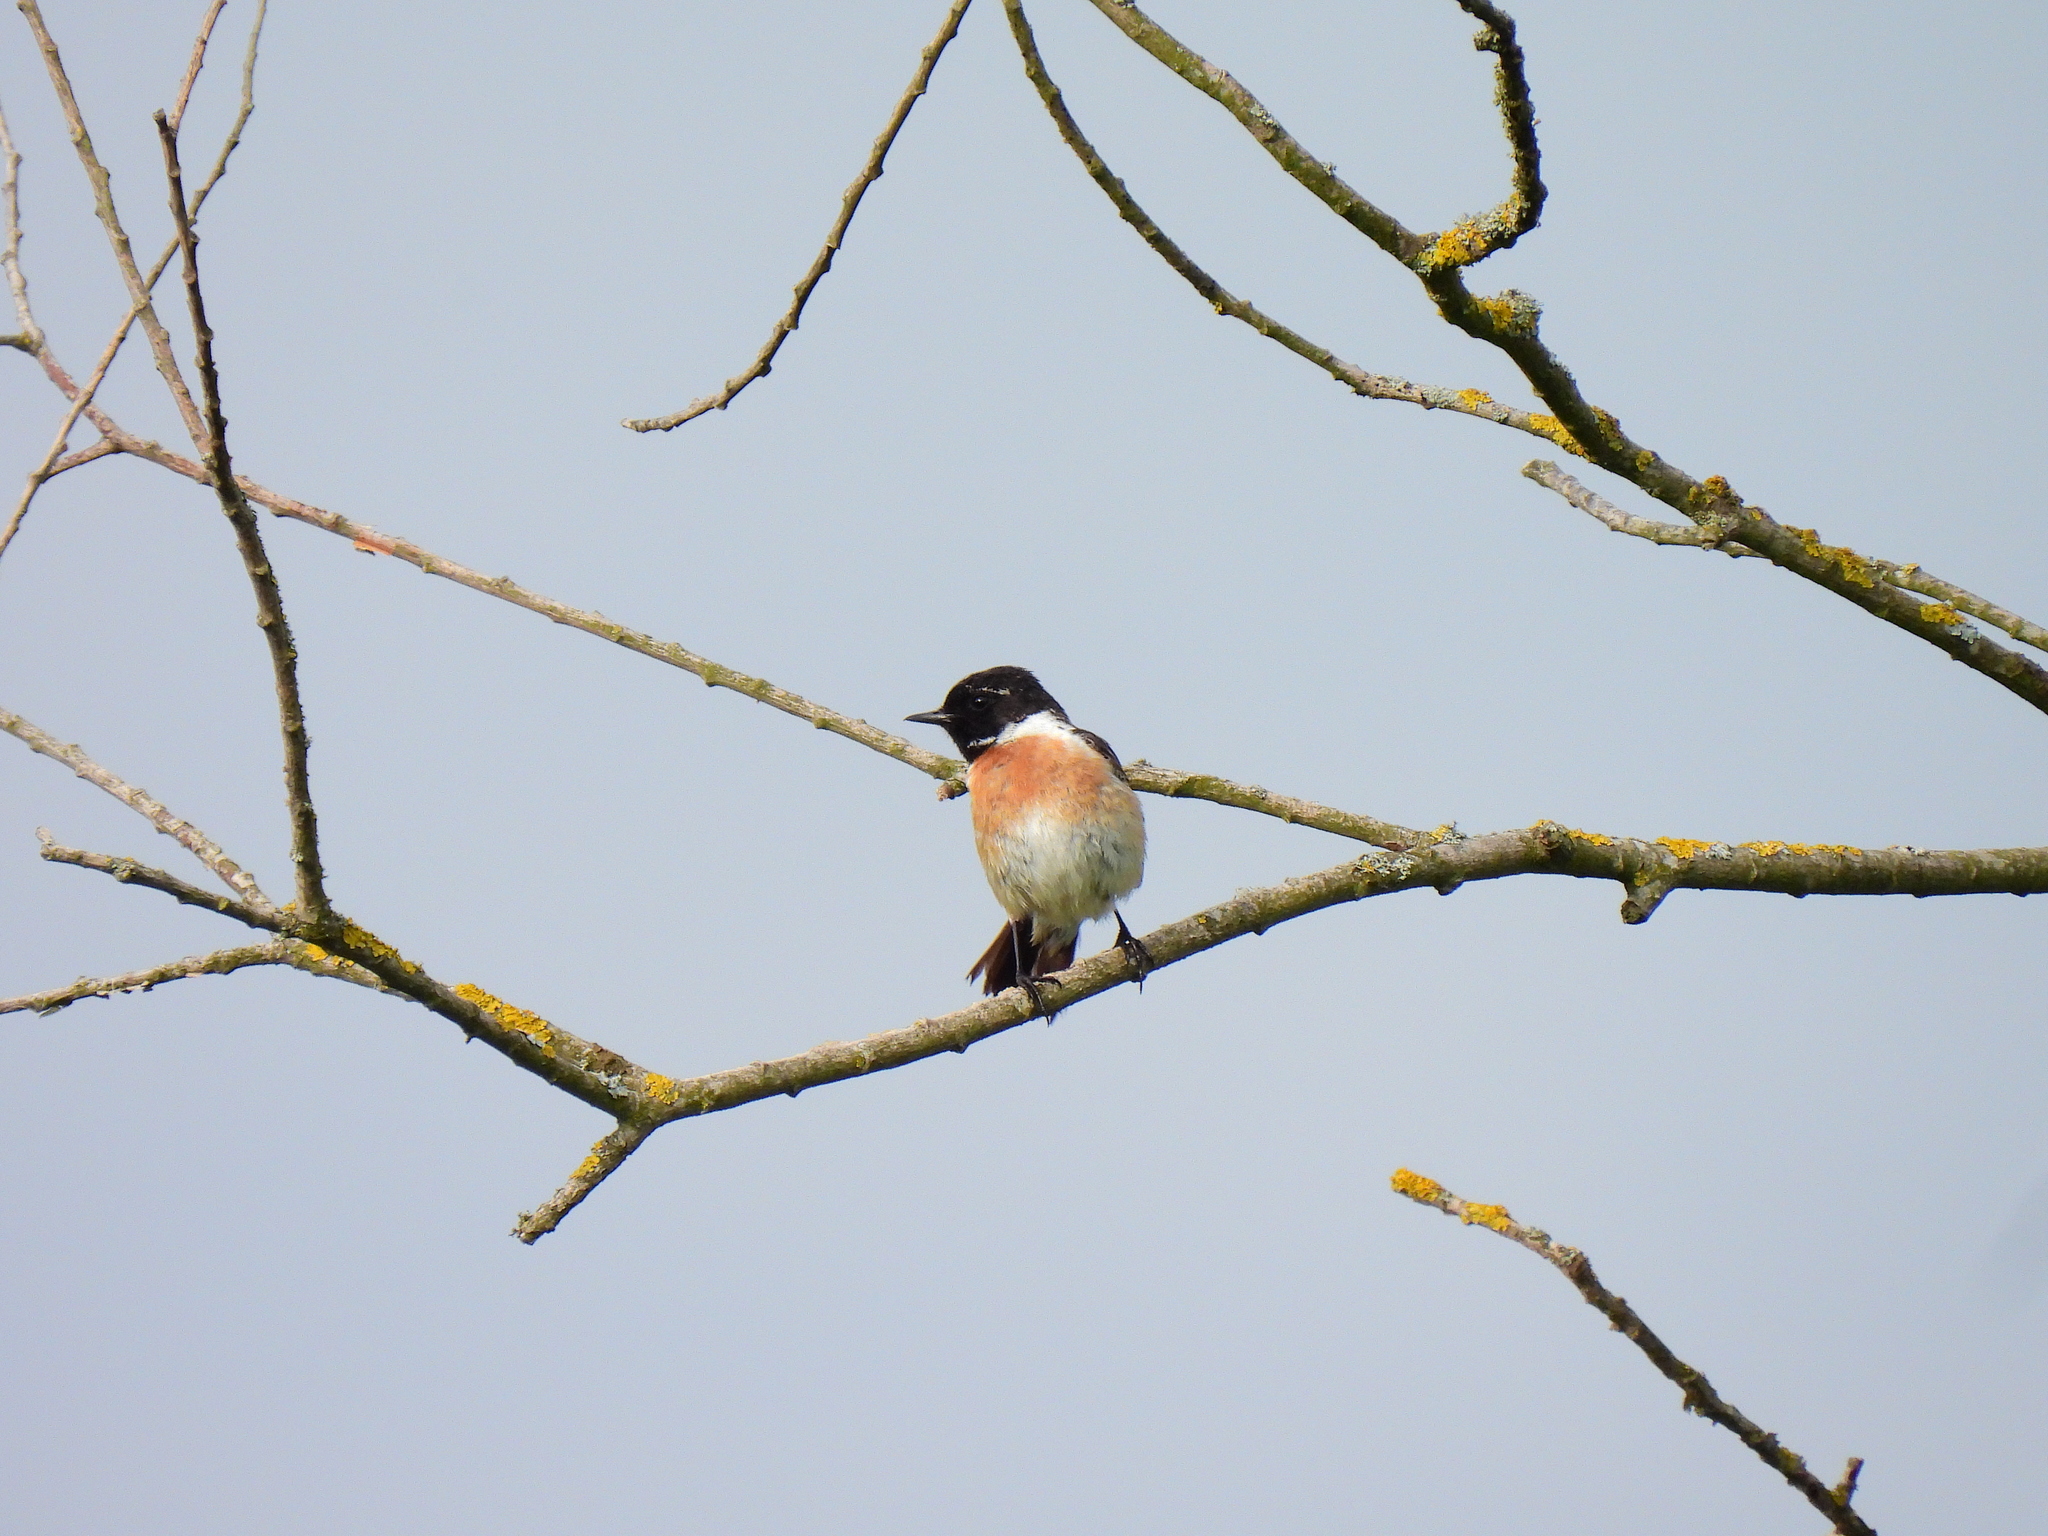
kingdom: Animalia
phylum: Chordata
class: Aves
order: Passeriformes
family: Muscicapidae
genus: Saxicola
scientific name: Saxicola rubicola
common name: European stonechat
